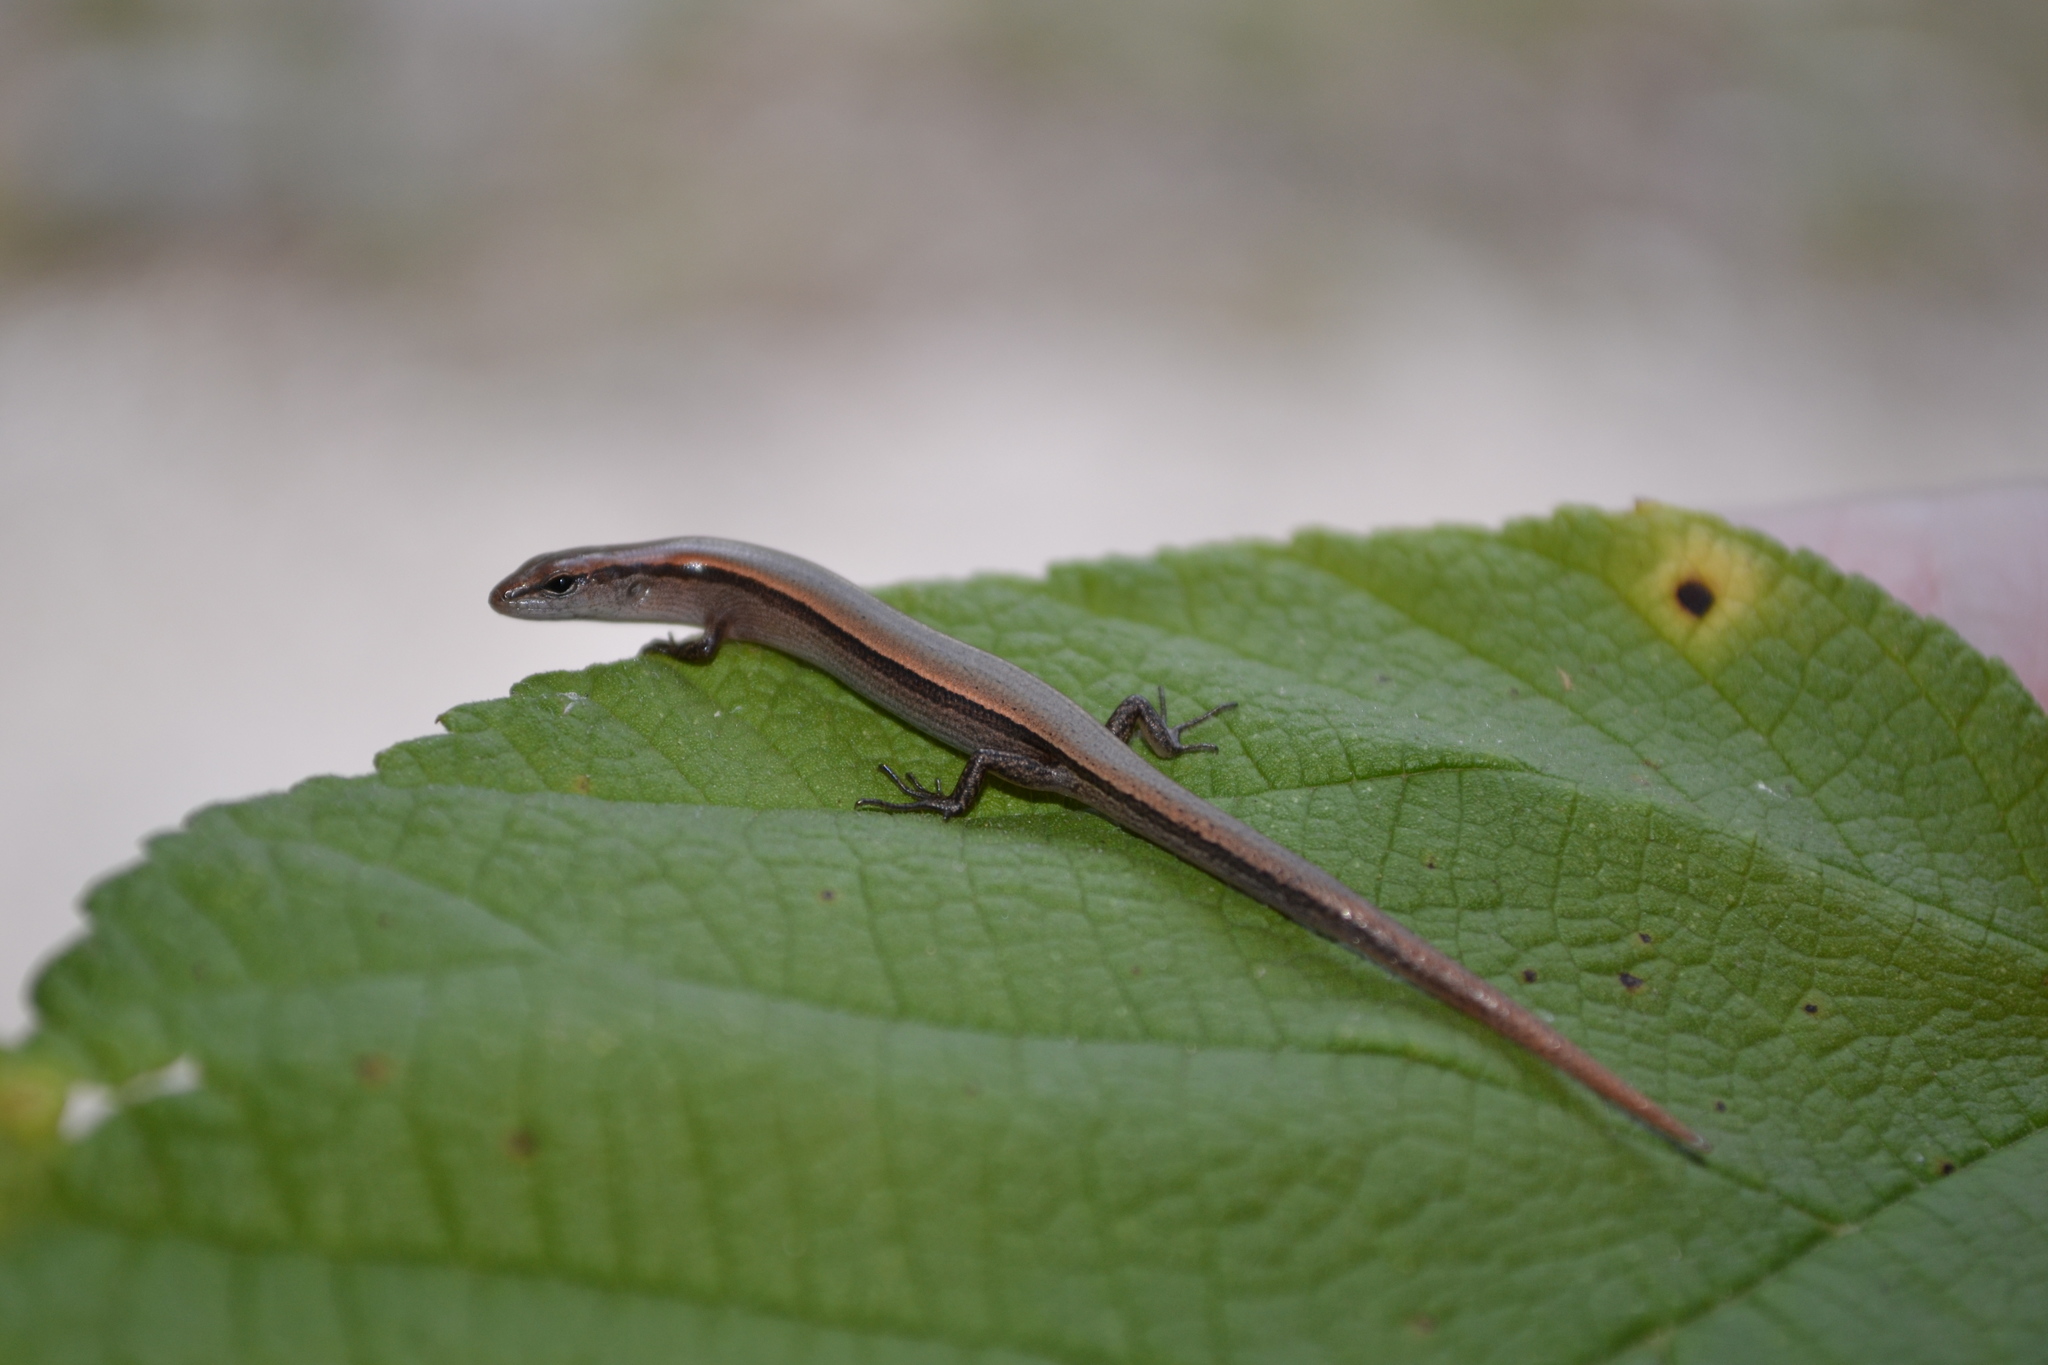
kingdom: Animalia
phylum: Chordata
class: Squamata
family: Scincidae
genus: Scincella
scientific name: Scincella lateralis
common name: Ground skink
